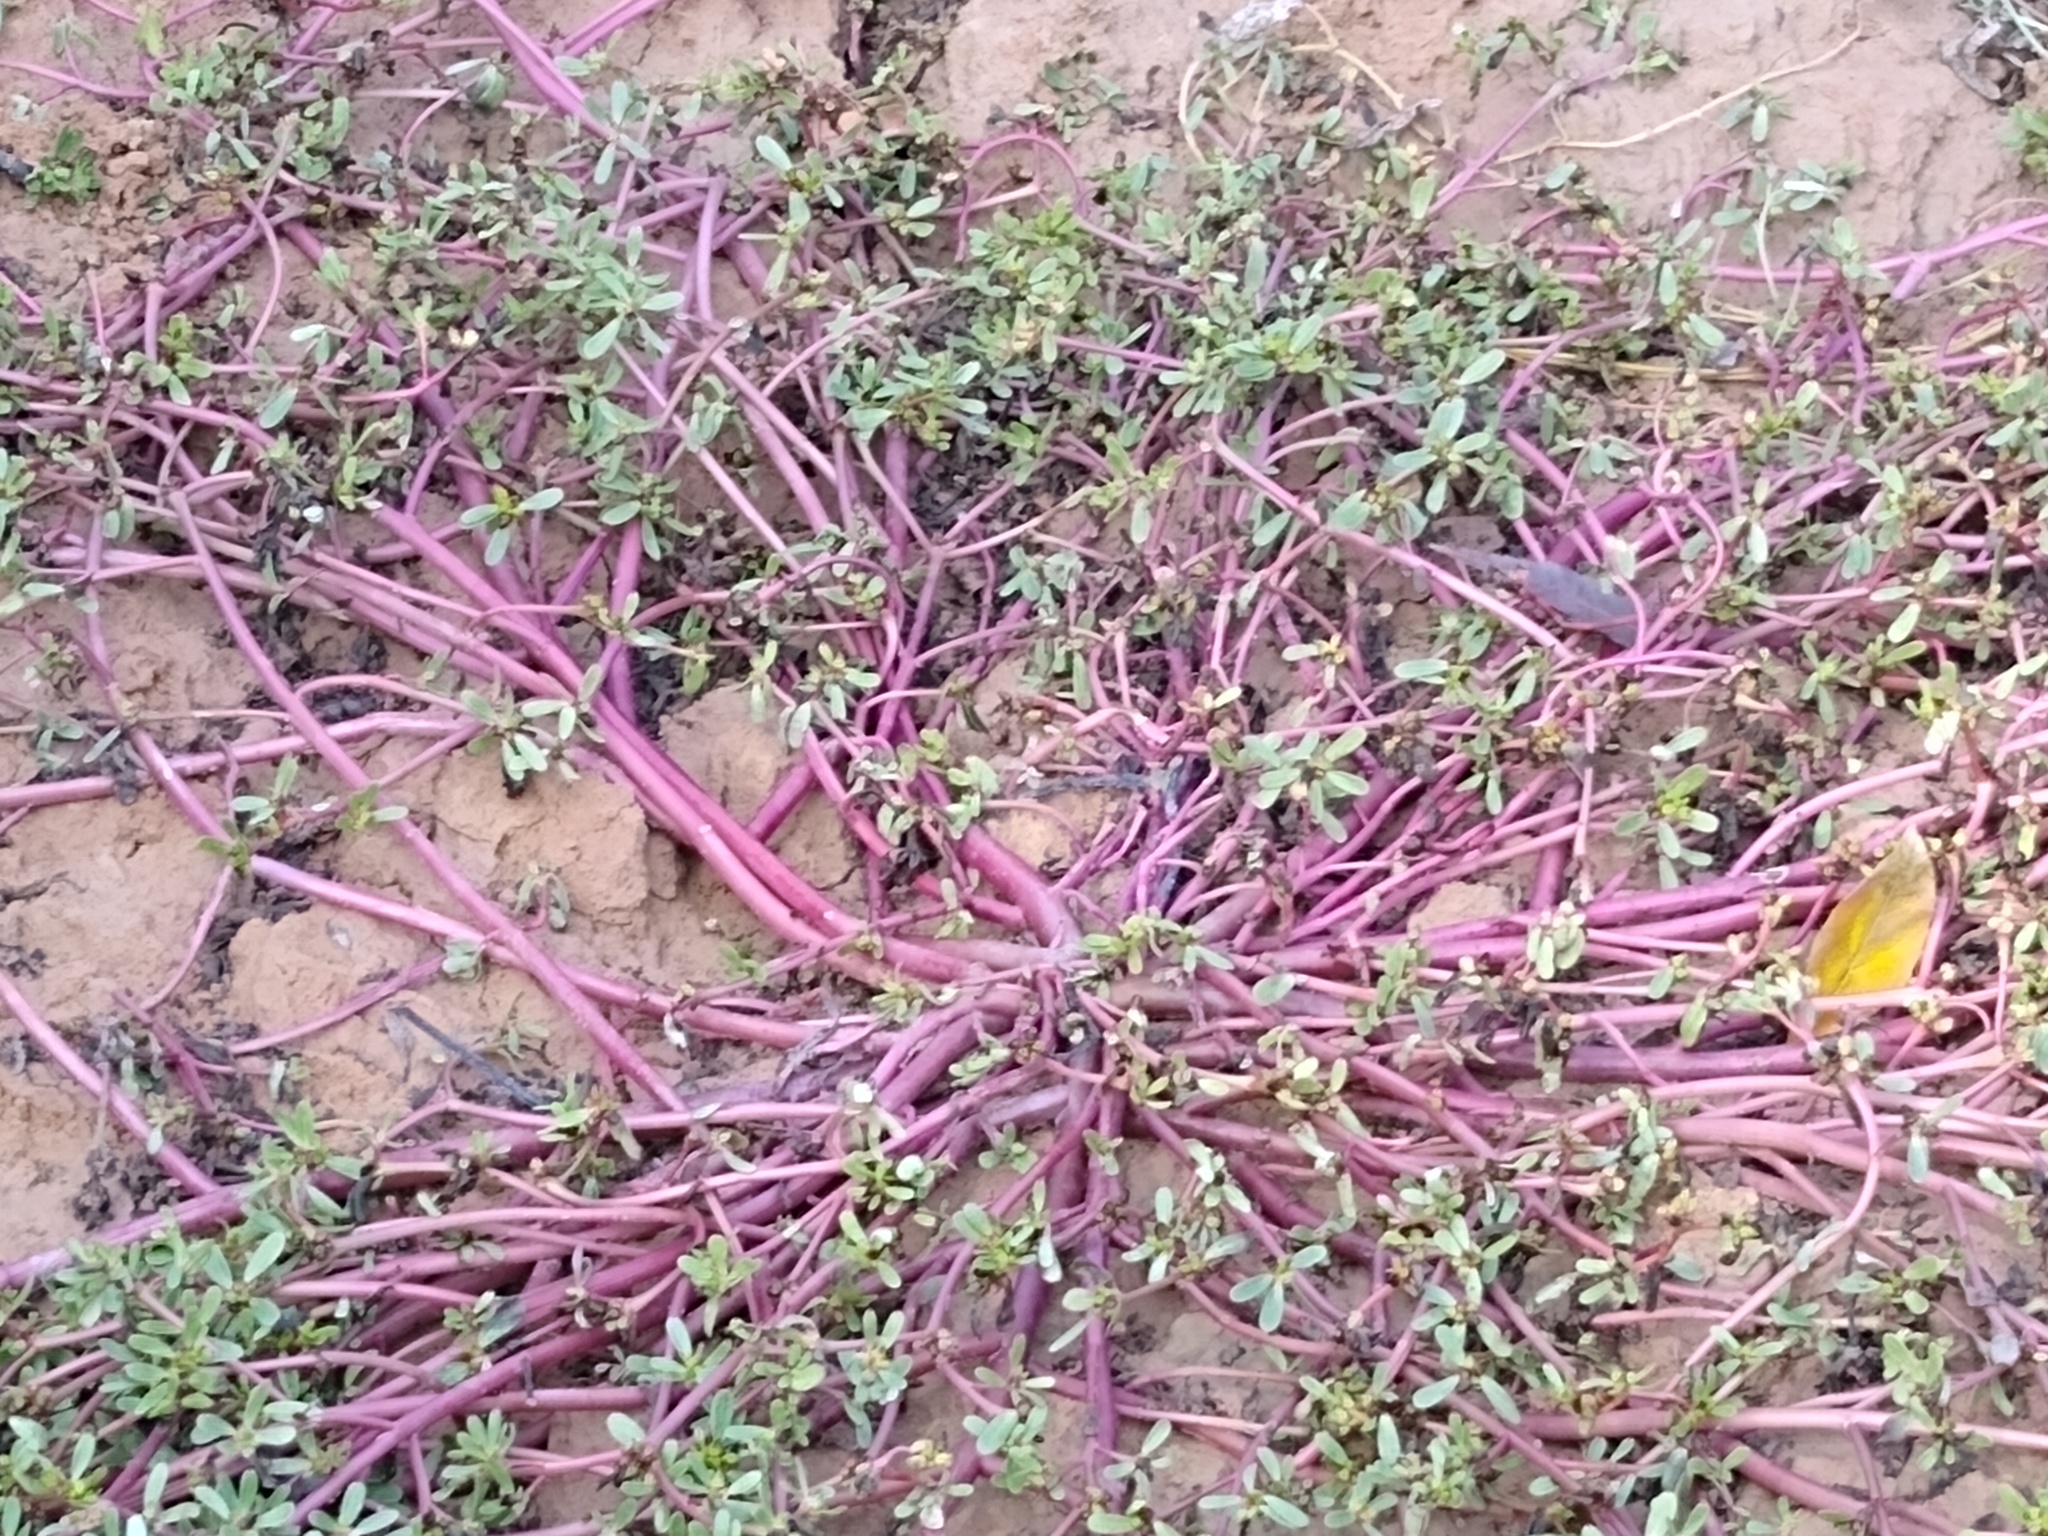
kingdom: Plantae
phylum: Tracheophyta
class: Magnoliopsida
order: Caryophyllales
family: Portulacaceae
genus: Portulaca
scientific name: Portulaca oleracea
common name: Common purslane
